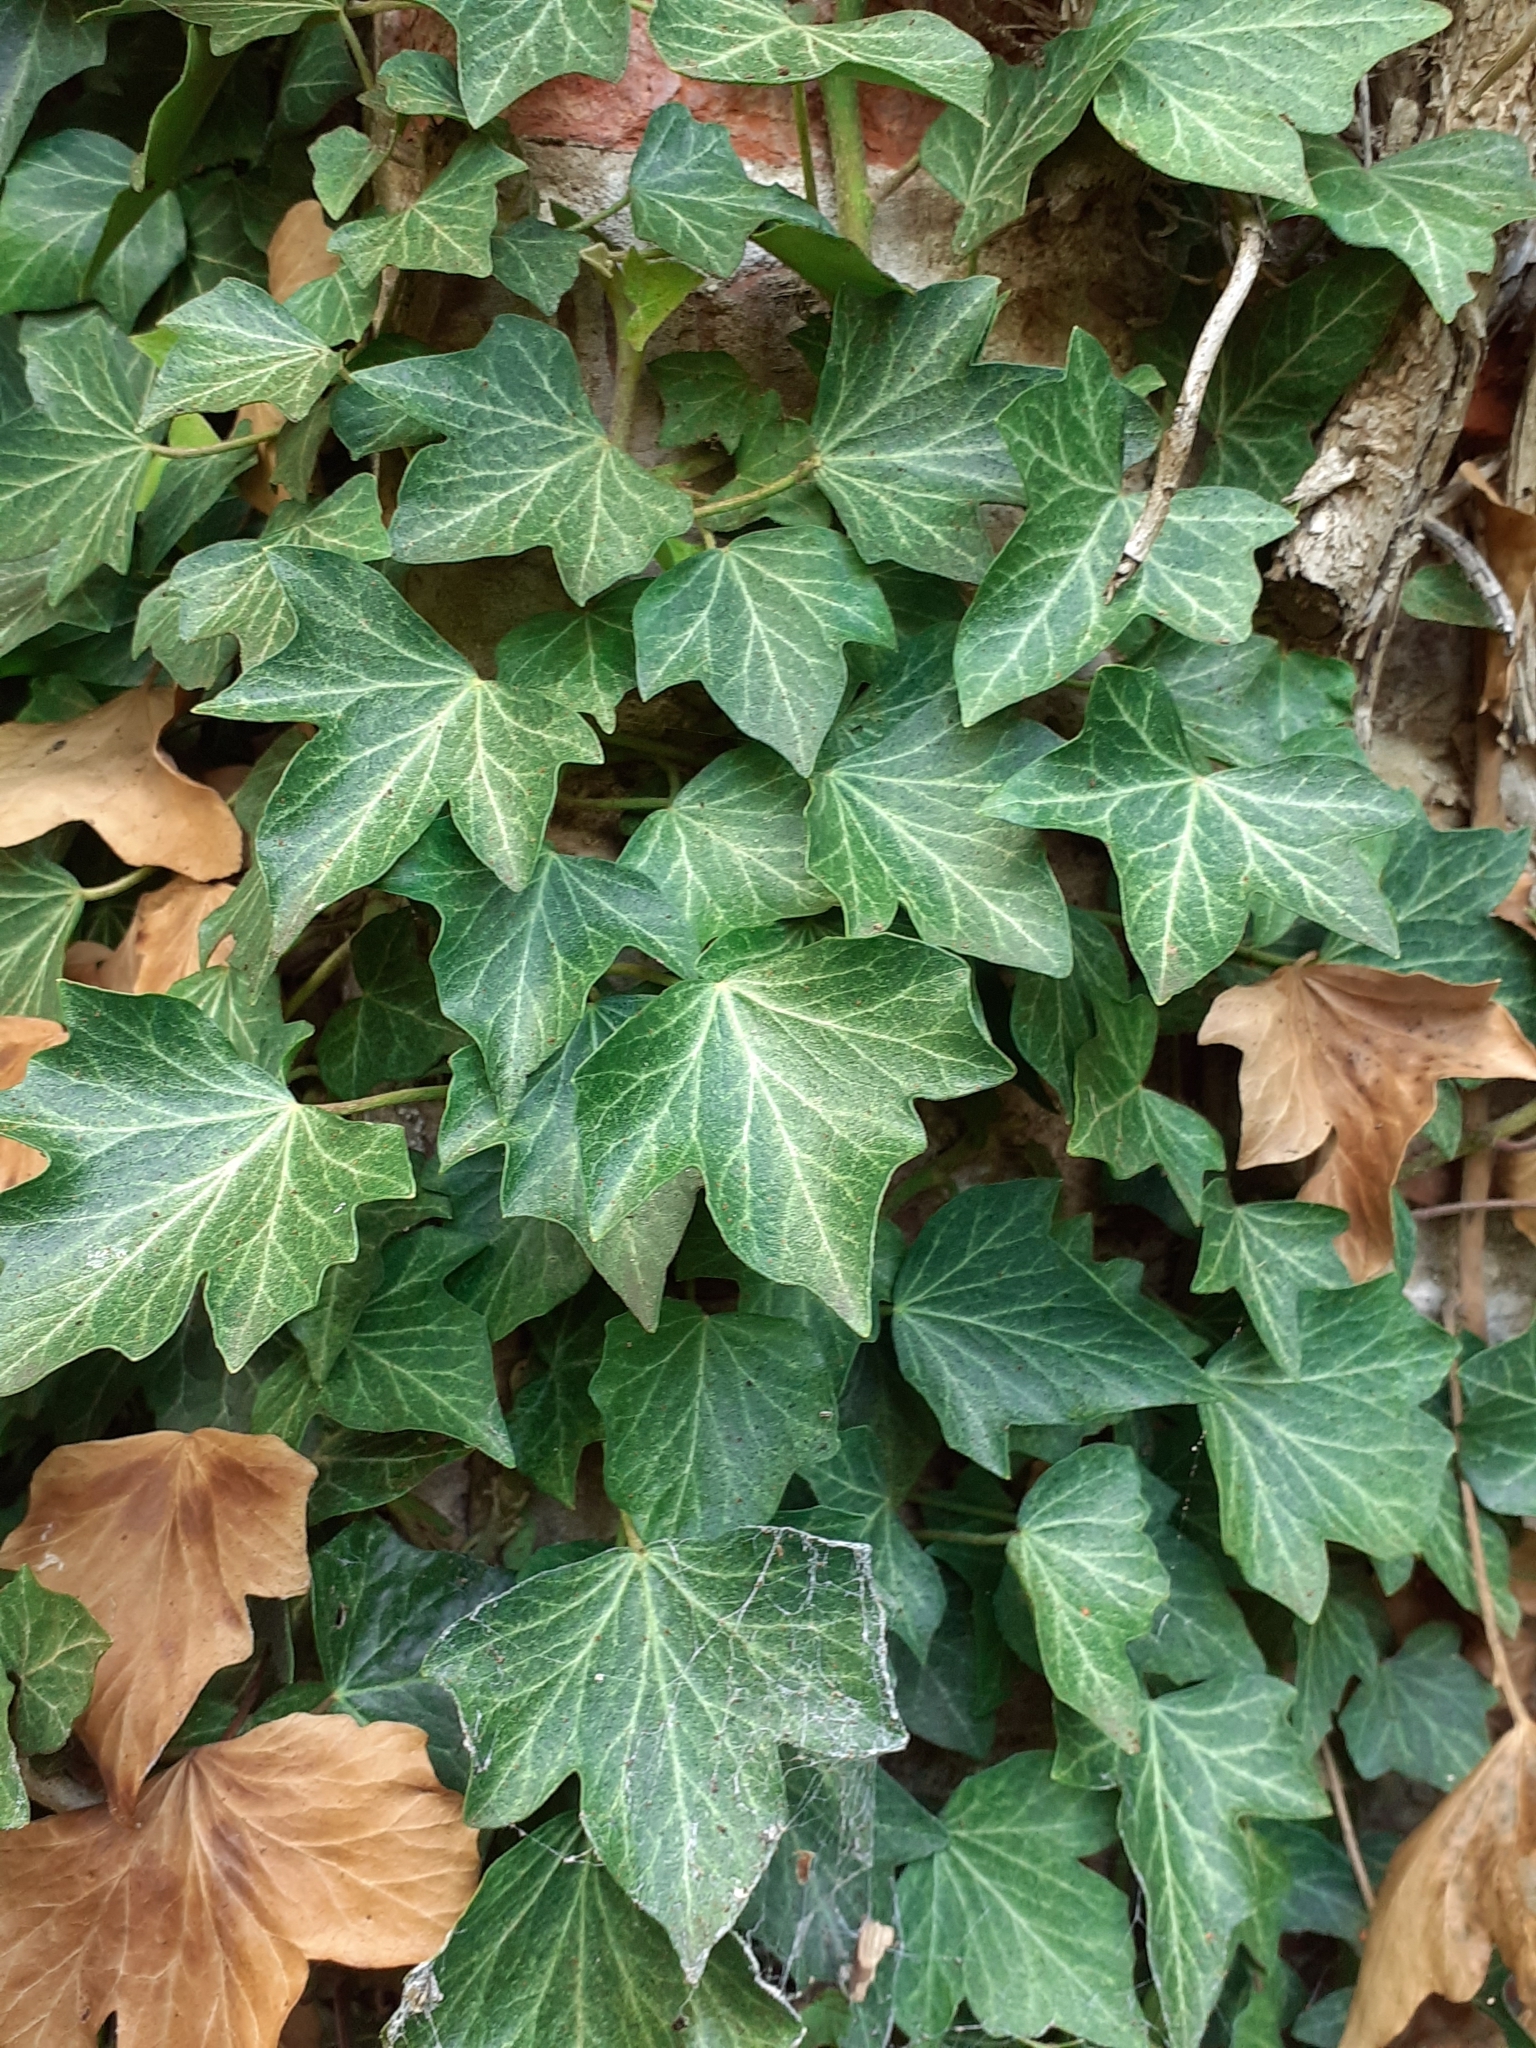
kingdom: Plantae
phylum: Tracheophyta
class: Magnoliopsida
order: Apiales
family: Araliaceae
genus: Hedera
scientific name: Hedera helix
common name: Ivy
